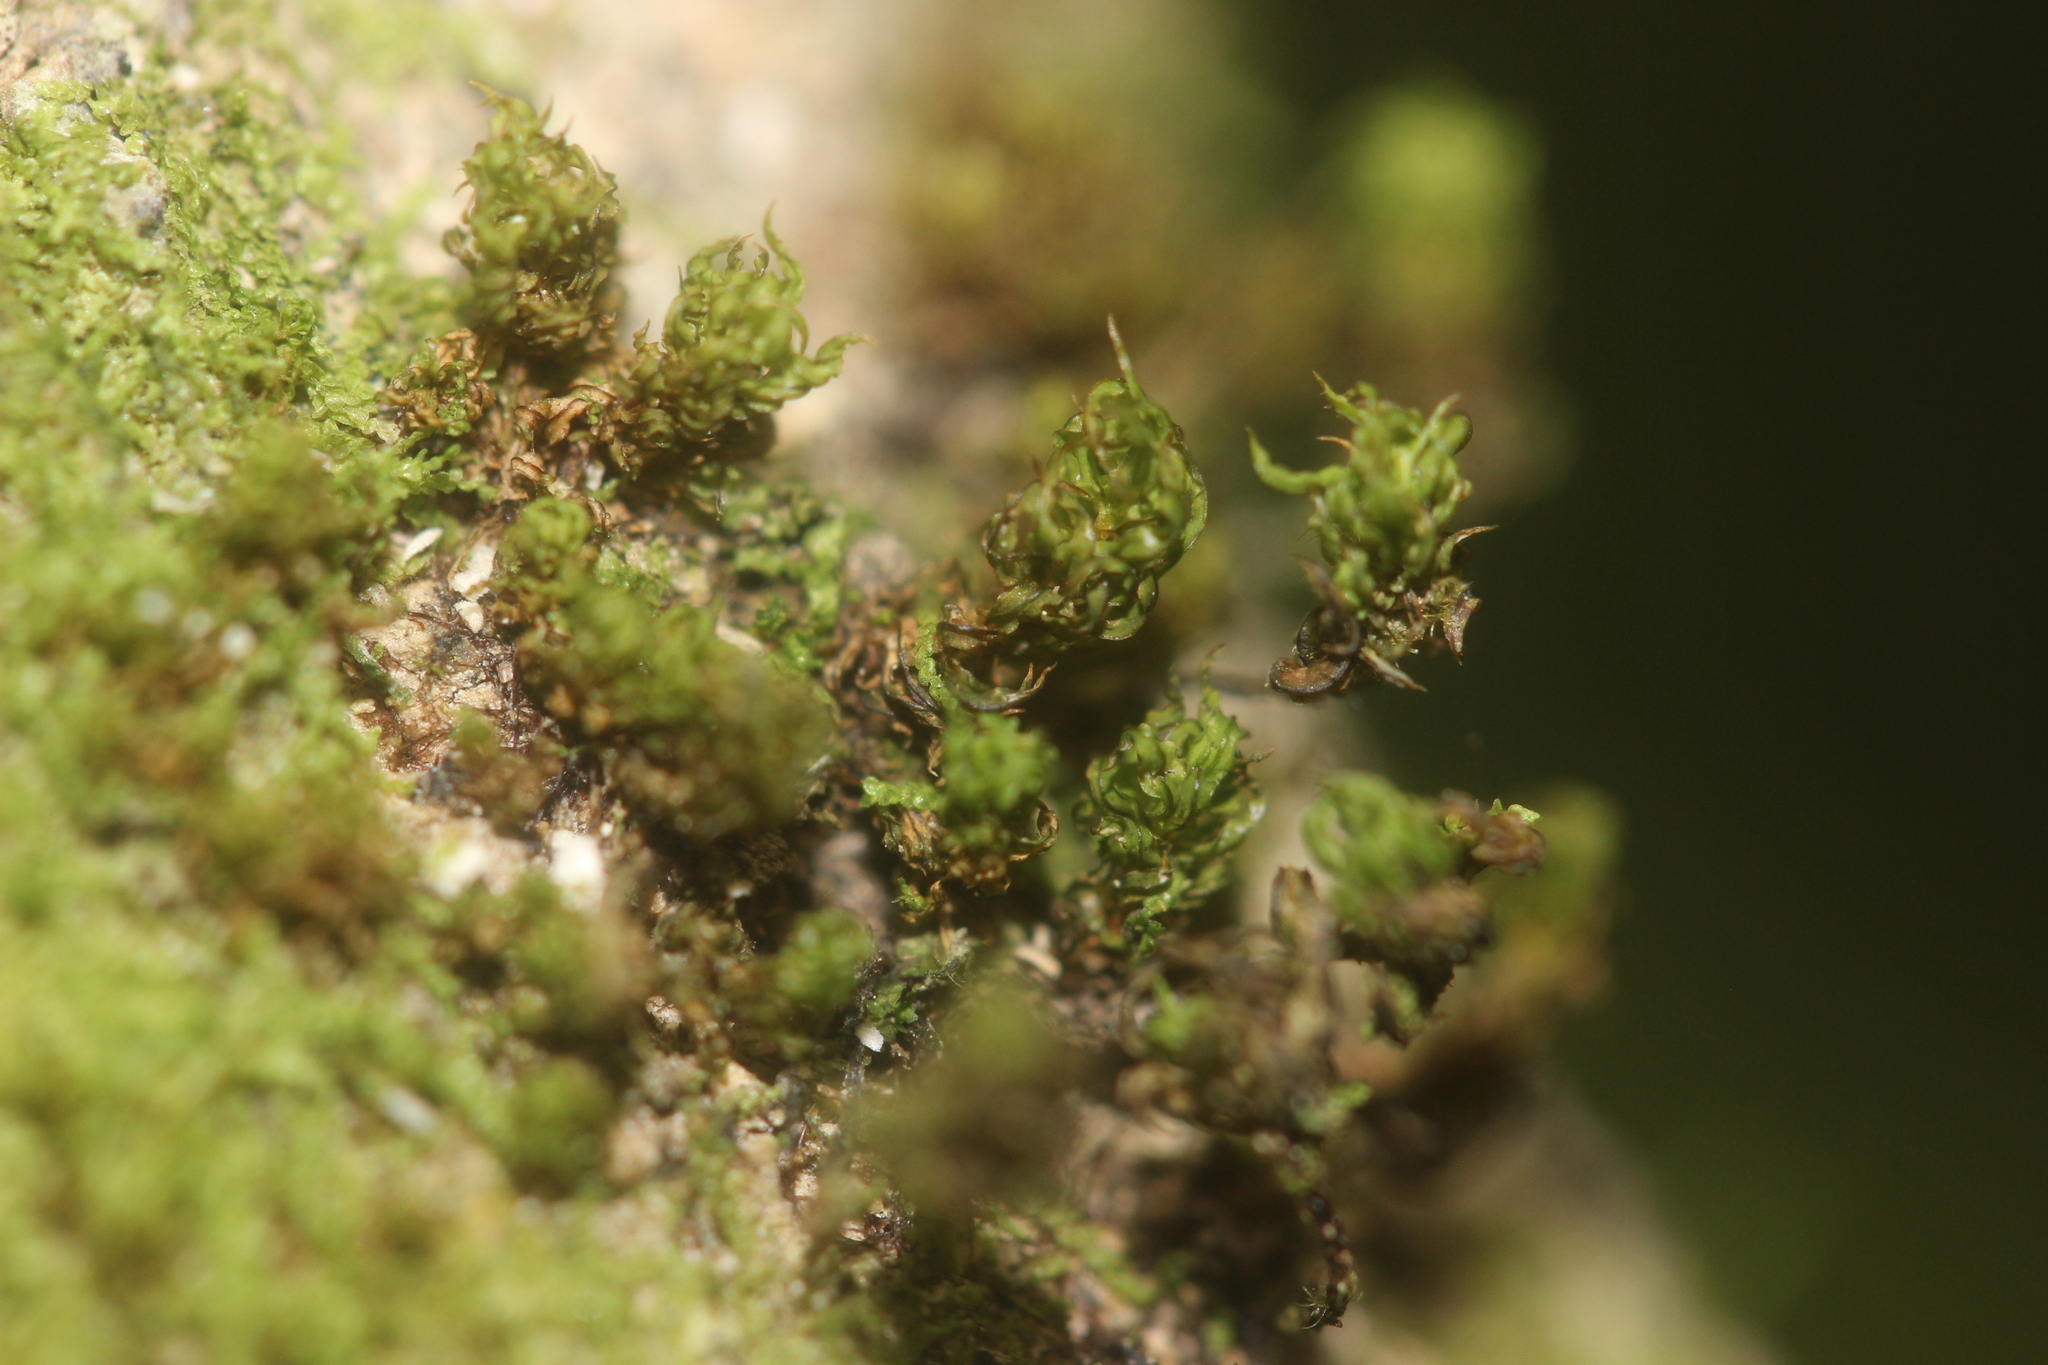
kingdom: Plantae
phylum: Bryophyta
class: Bryopsida
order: Pottiales
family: Pottiaceae
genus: Syntrichia
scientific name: Syntrichia mnioides
